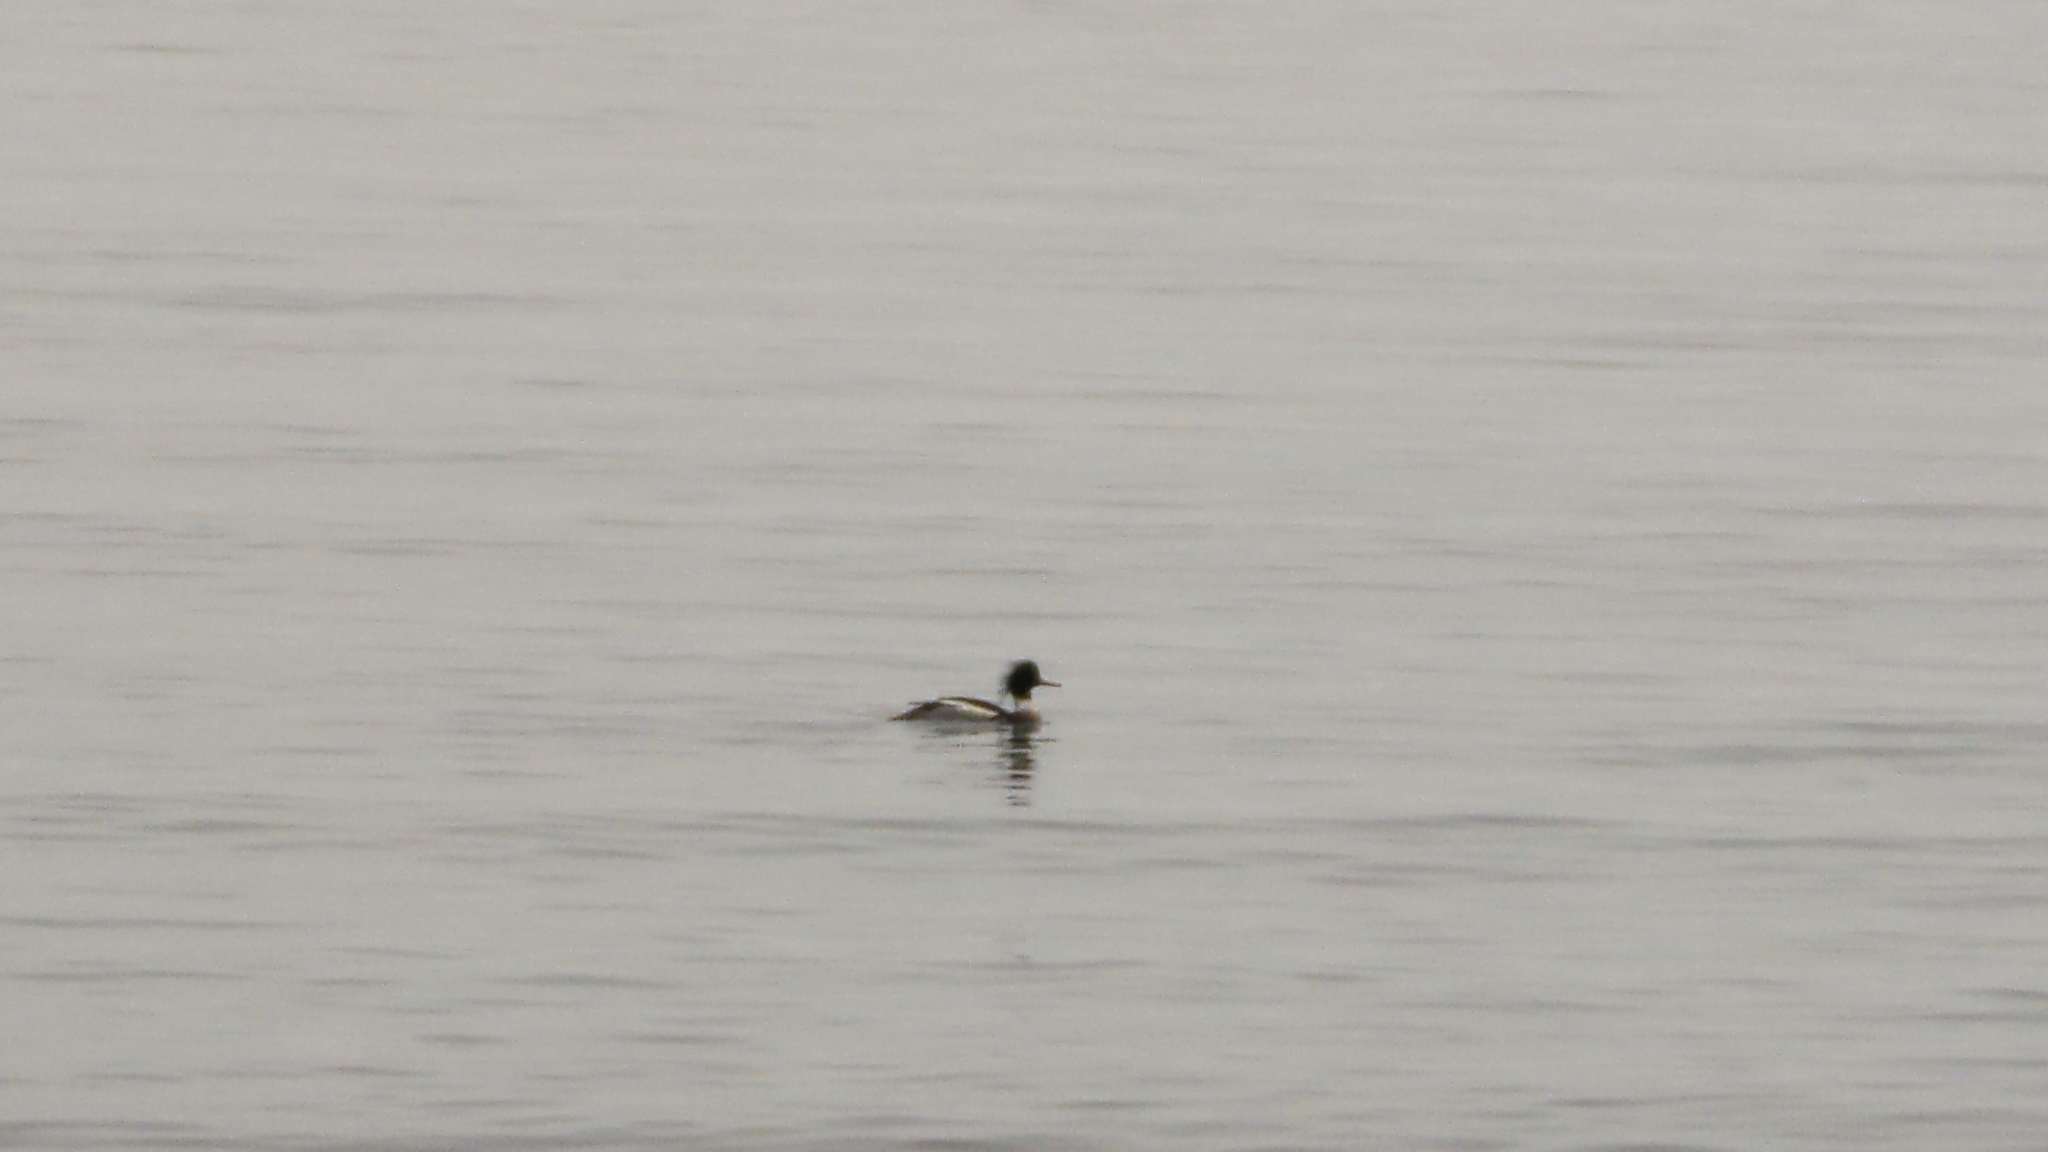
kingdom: Animalia
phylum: Chordata
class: Aves
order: Anseriformes
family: Anatidae
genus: Mergus
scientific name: Mergus serrator
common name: Red-breasted merganser
